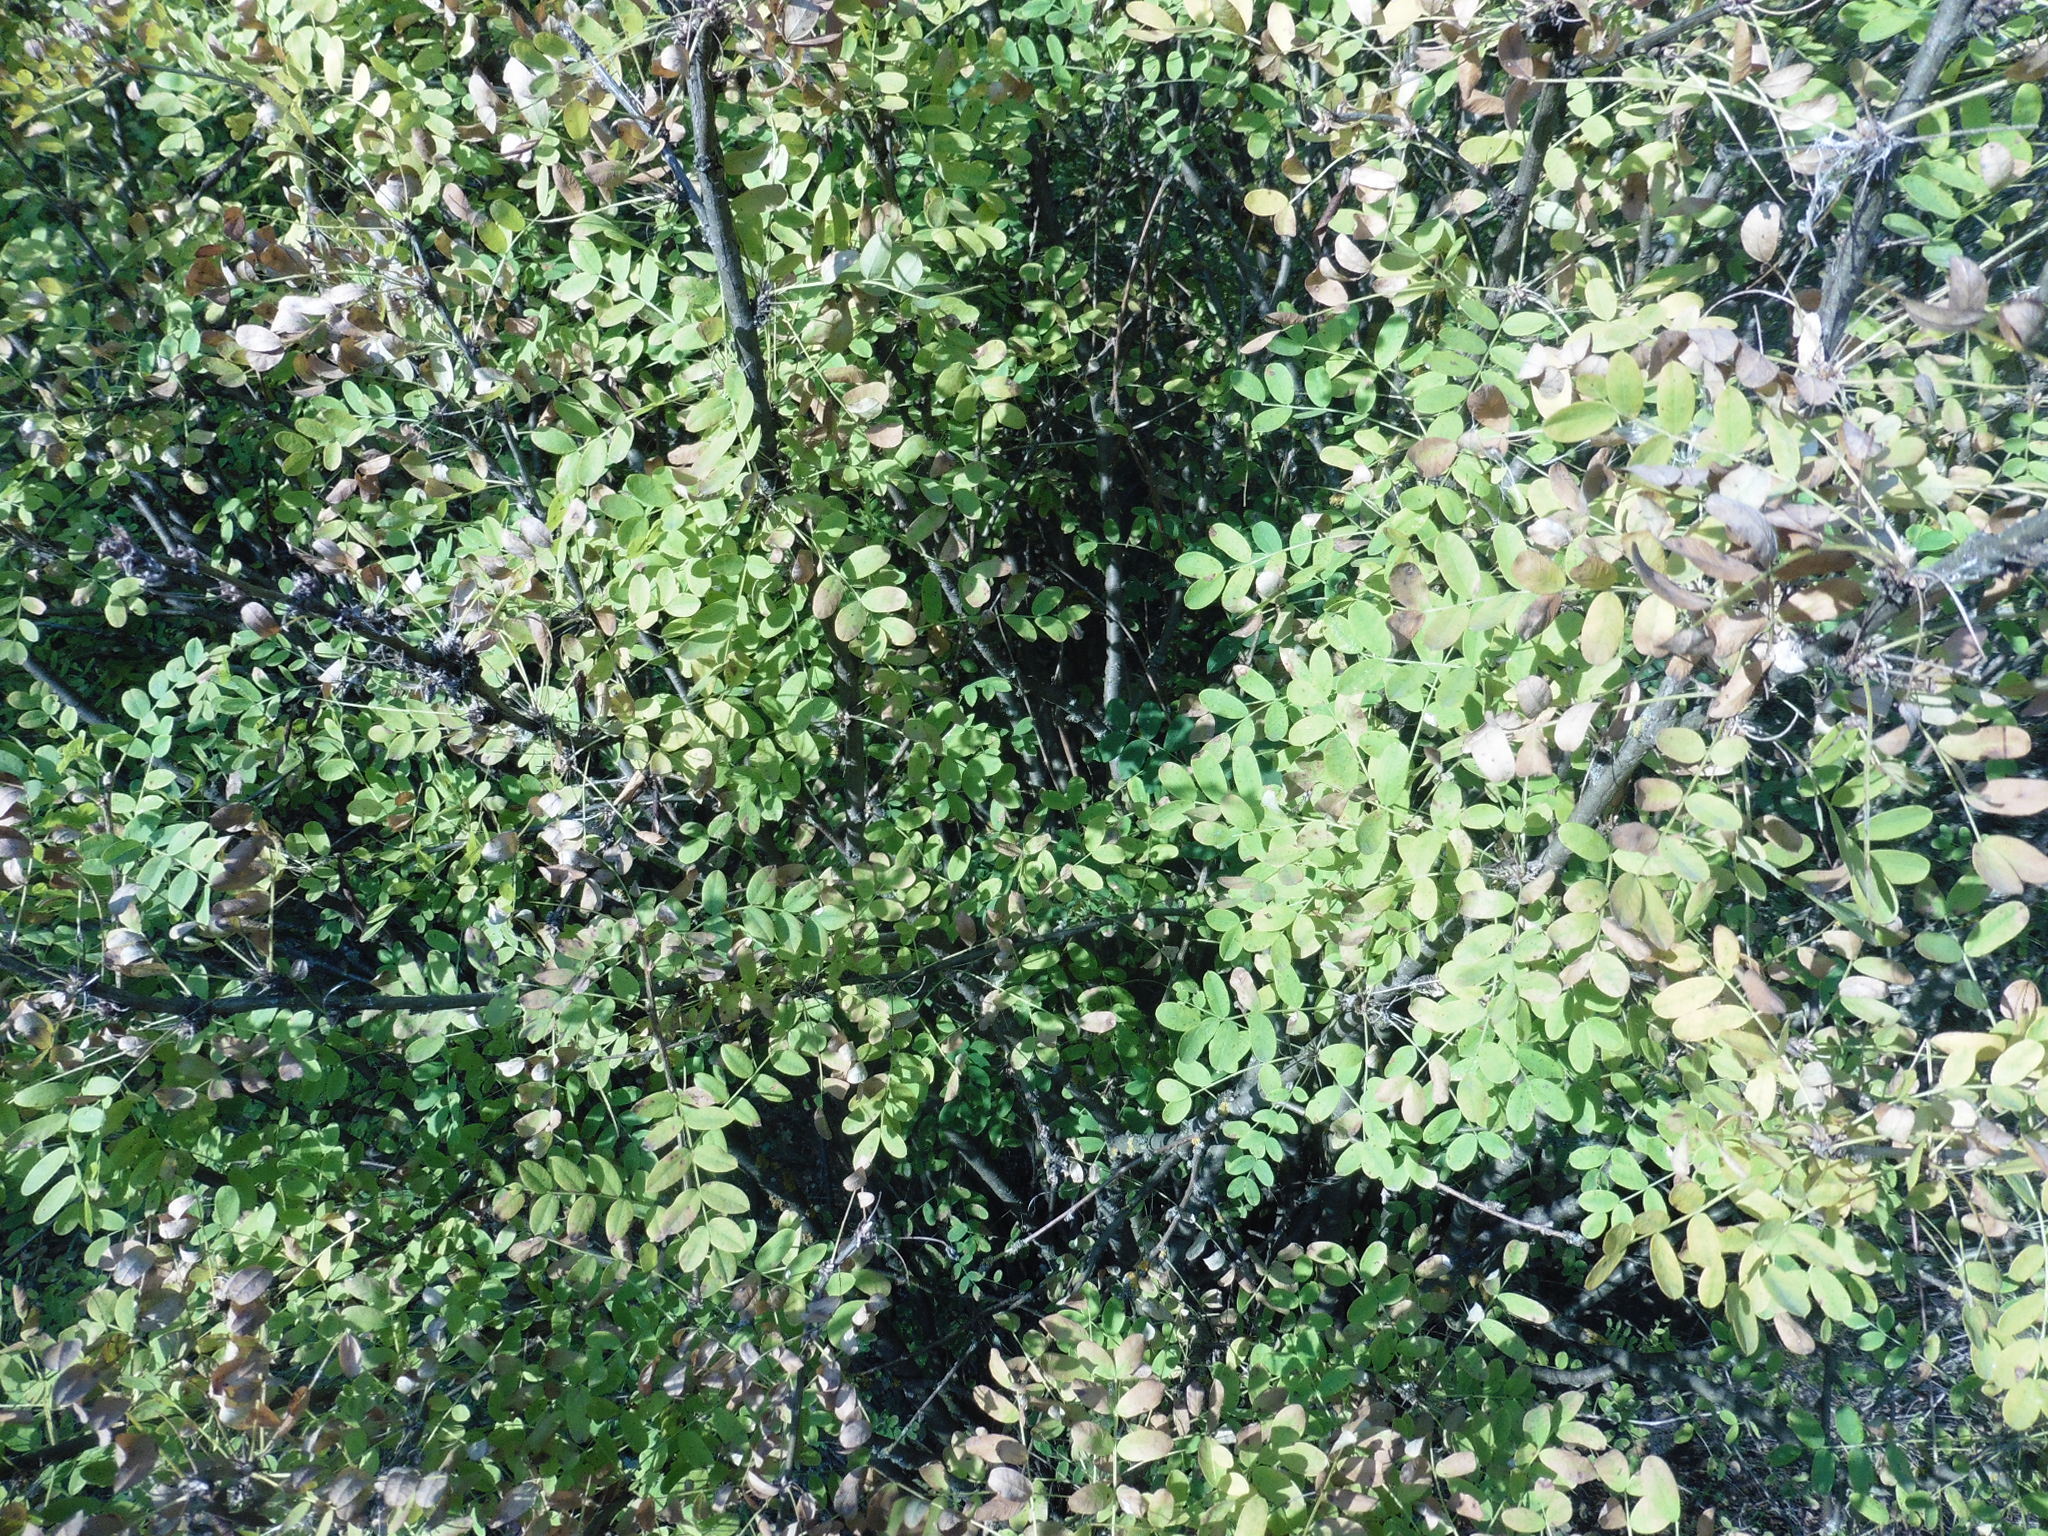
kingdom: Plantae
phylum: Tracheophyta
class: Magnoliopsida
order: Fabales
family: Fabaceae
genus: Caragana
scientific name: Caragana arborescens
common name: Siberian peashrub
